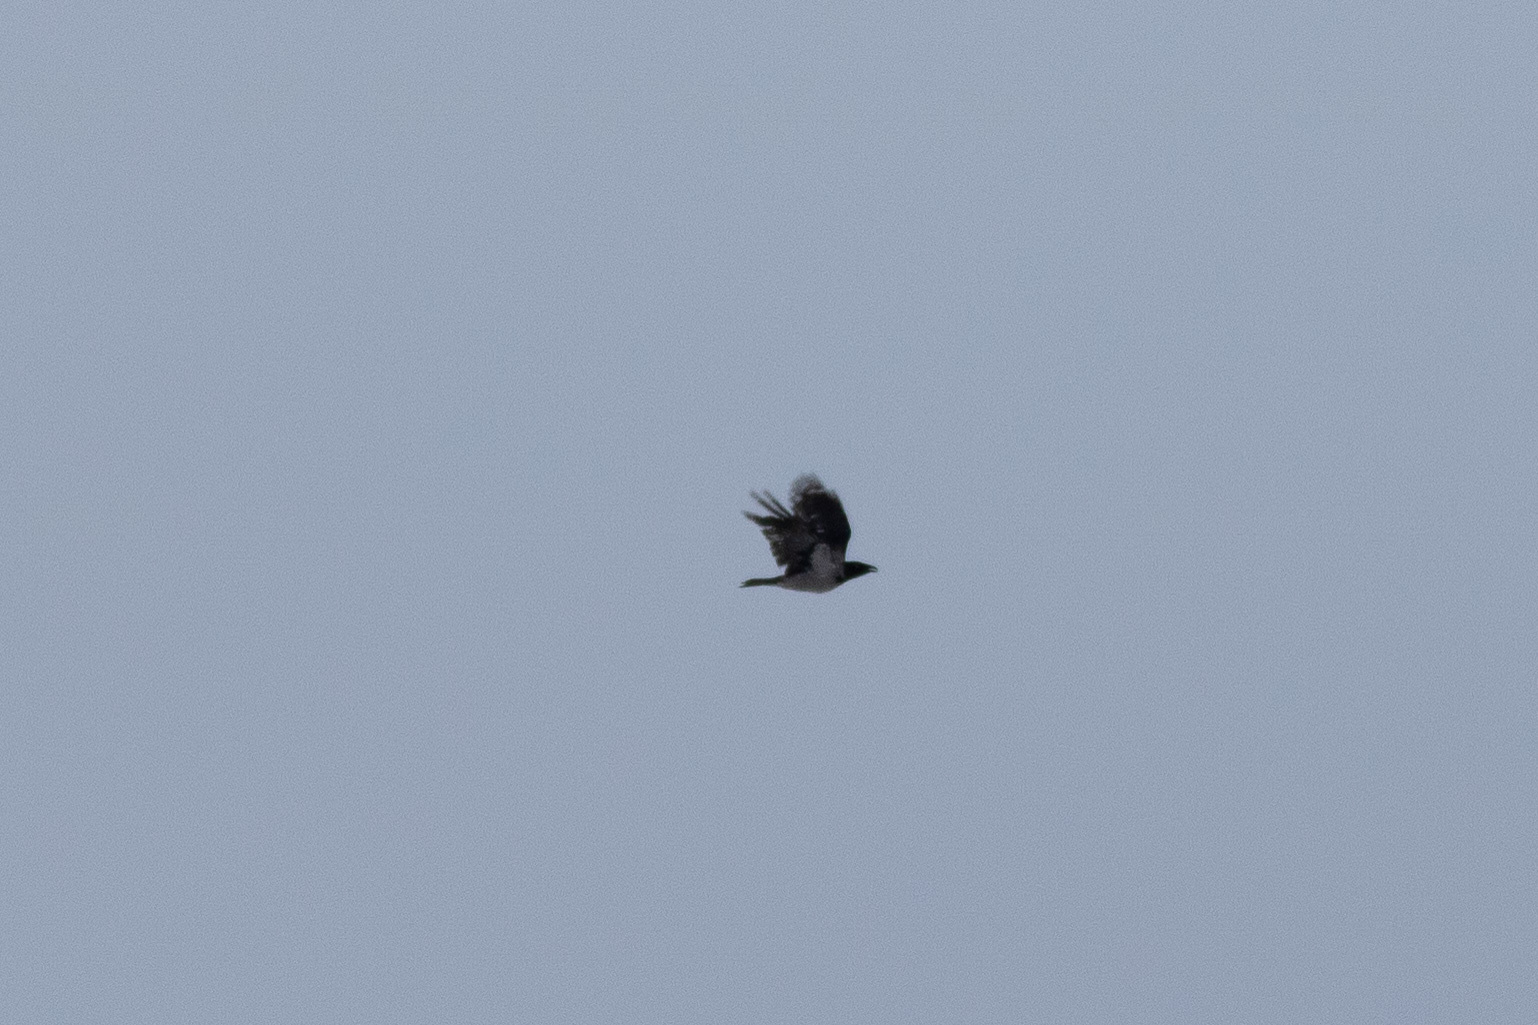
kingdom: Animalia
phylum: Chordata
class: Aves
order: Passeriformes
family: Corvidae
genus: Corvus
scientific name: Corvus cornix
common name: Hooded crow
